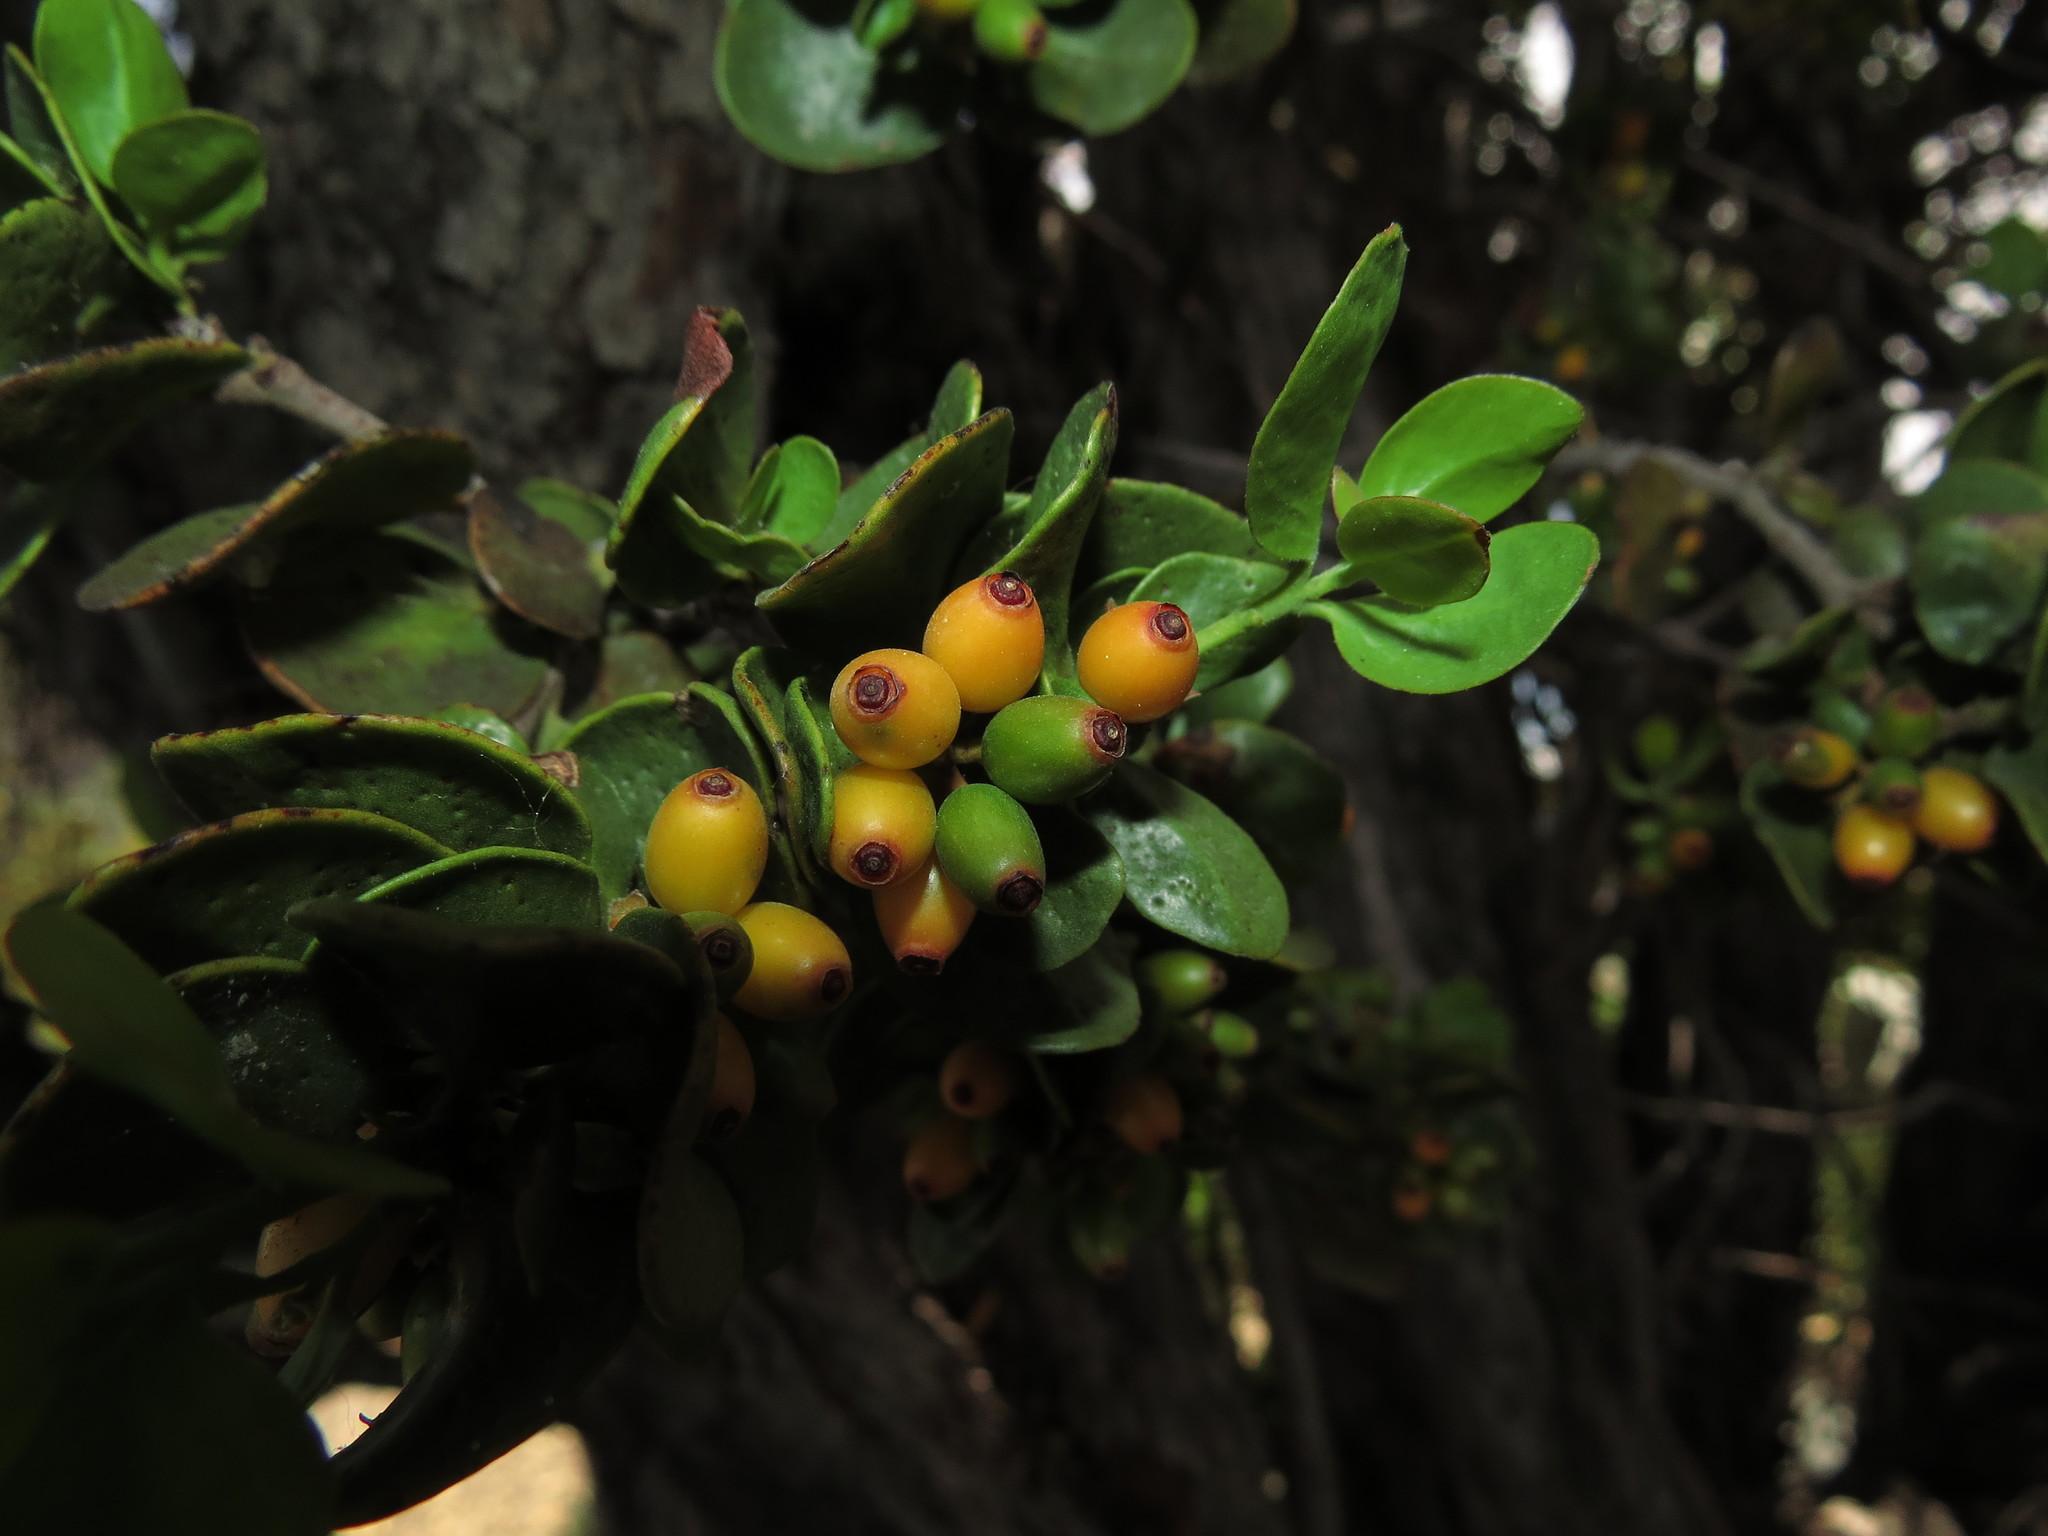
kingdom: Plantae
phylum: Tracheophyta
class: Magnoliopsida
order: Santalales
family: Loranthaceae
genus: Tristerix
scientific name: Tristerix verticillatus
